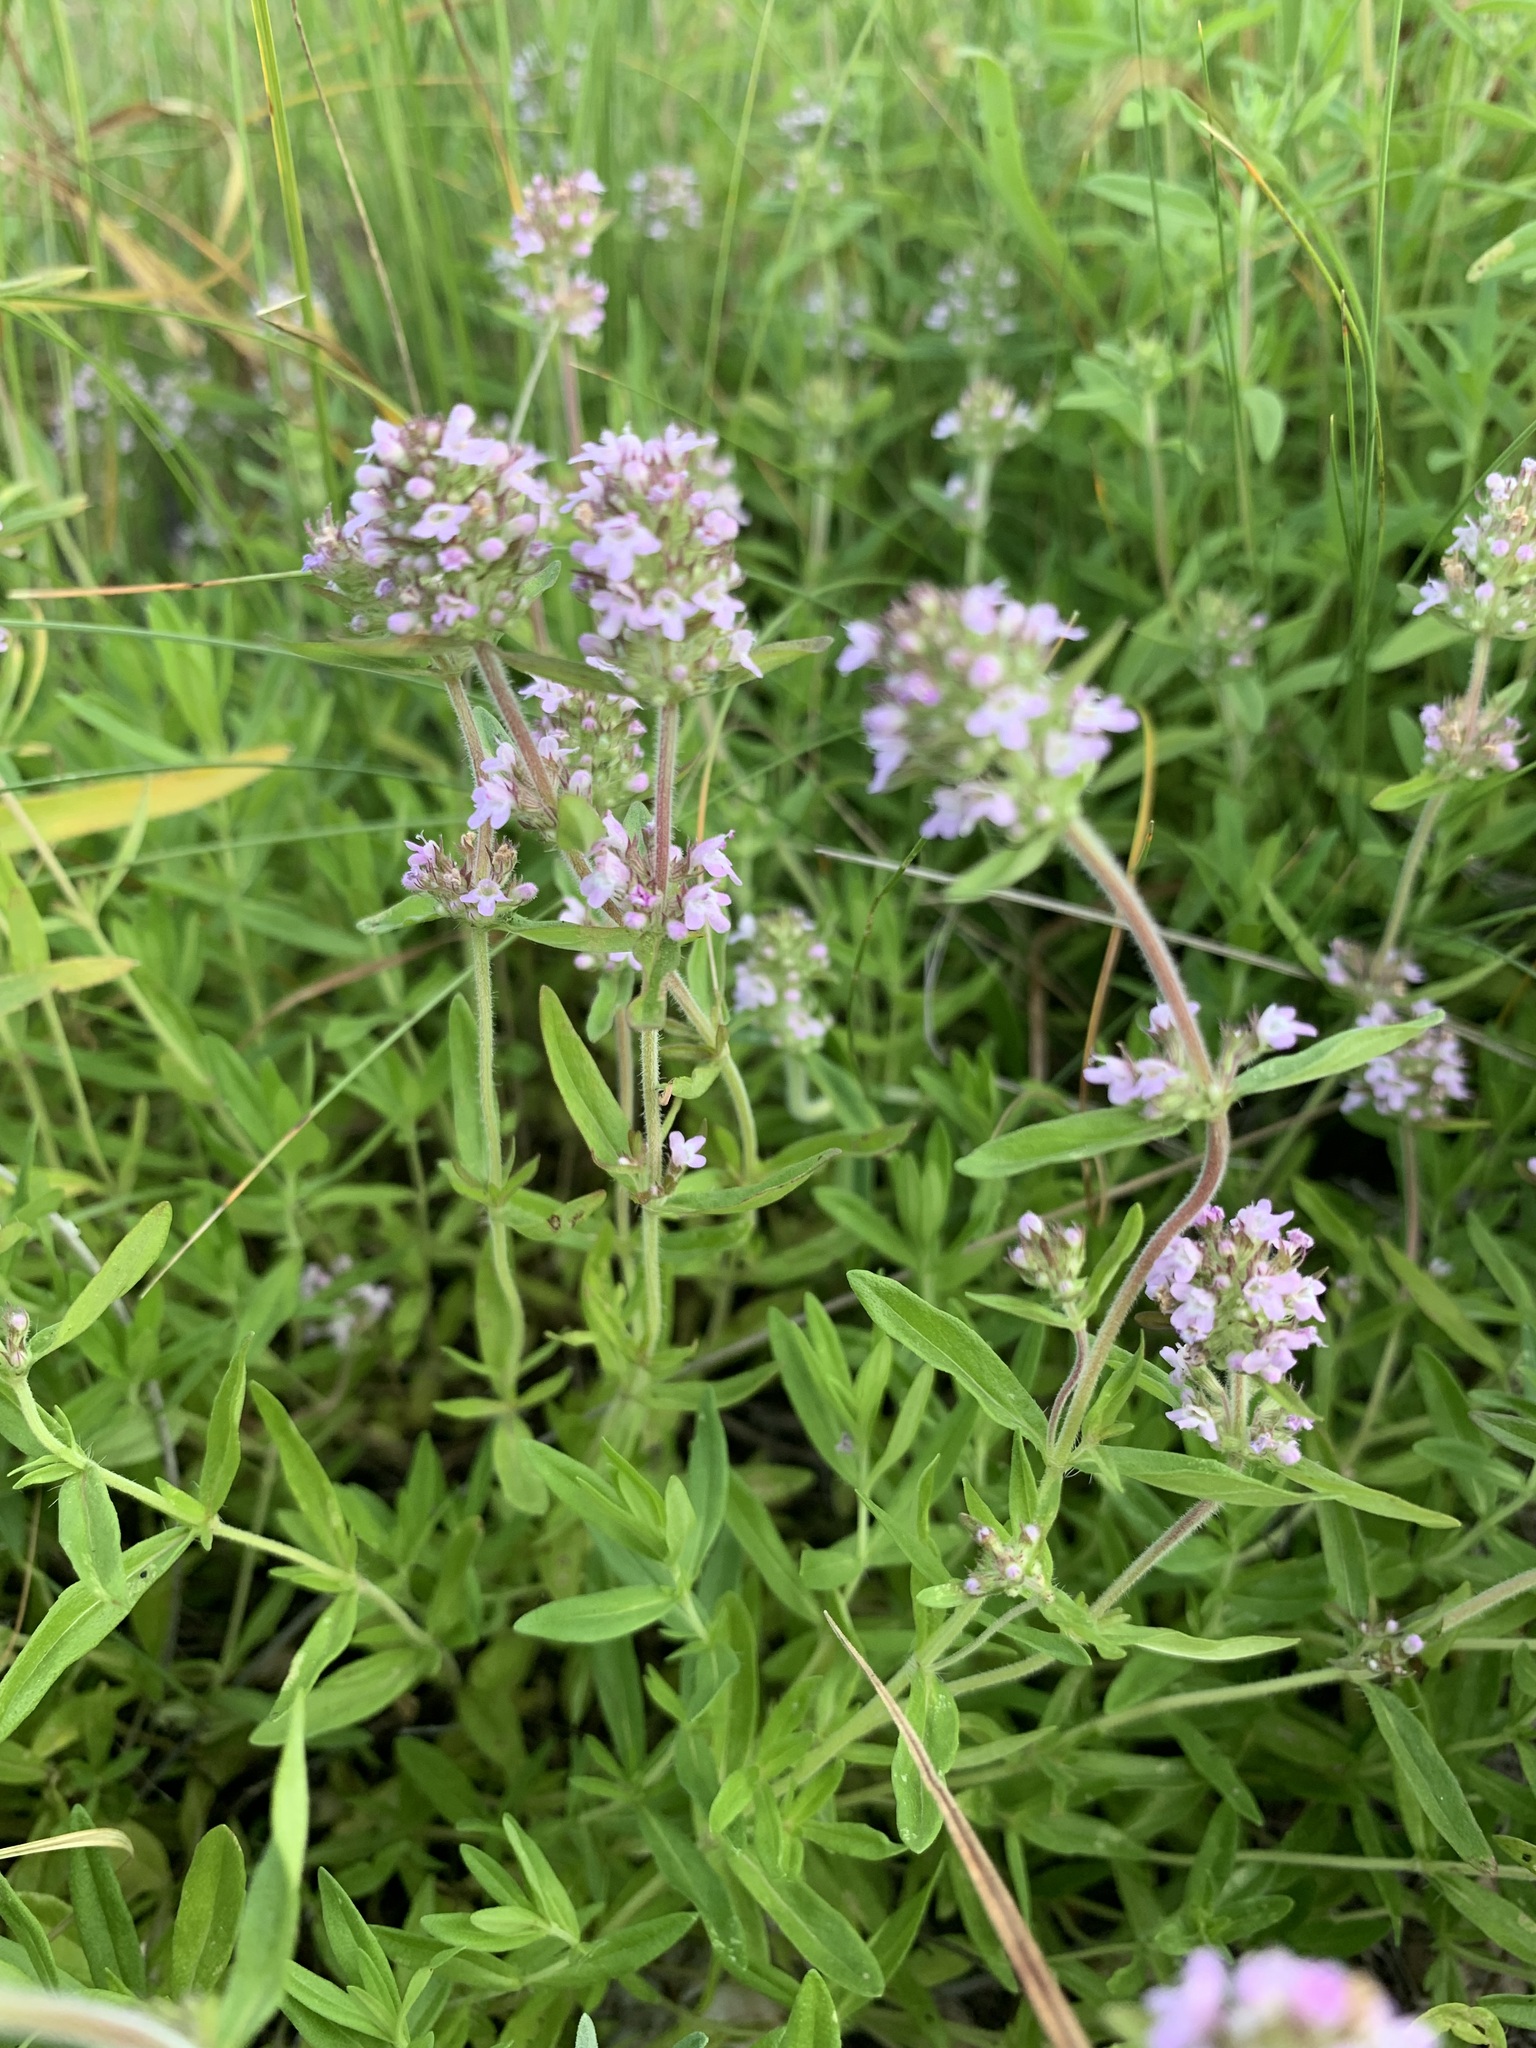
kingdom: Plantae
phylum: Tracheophyta
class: Magnoliopsida
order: Lamiales
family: Lamiaceae
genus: Thymus
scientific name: Thymus pannonicus
